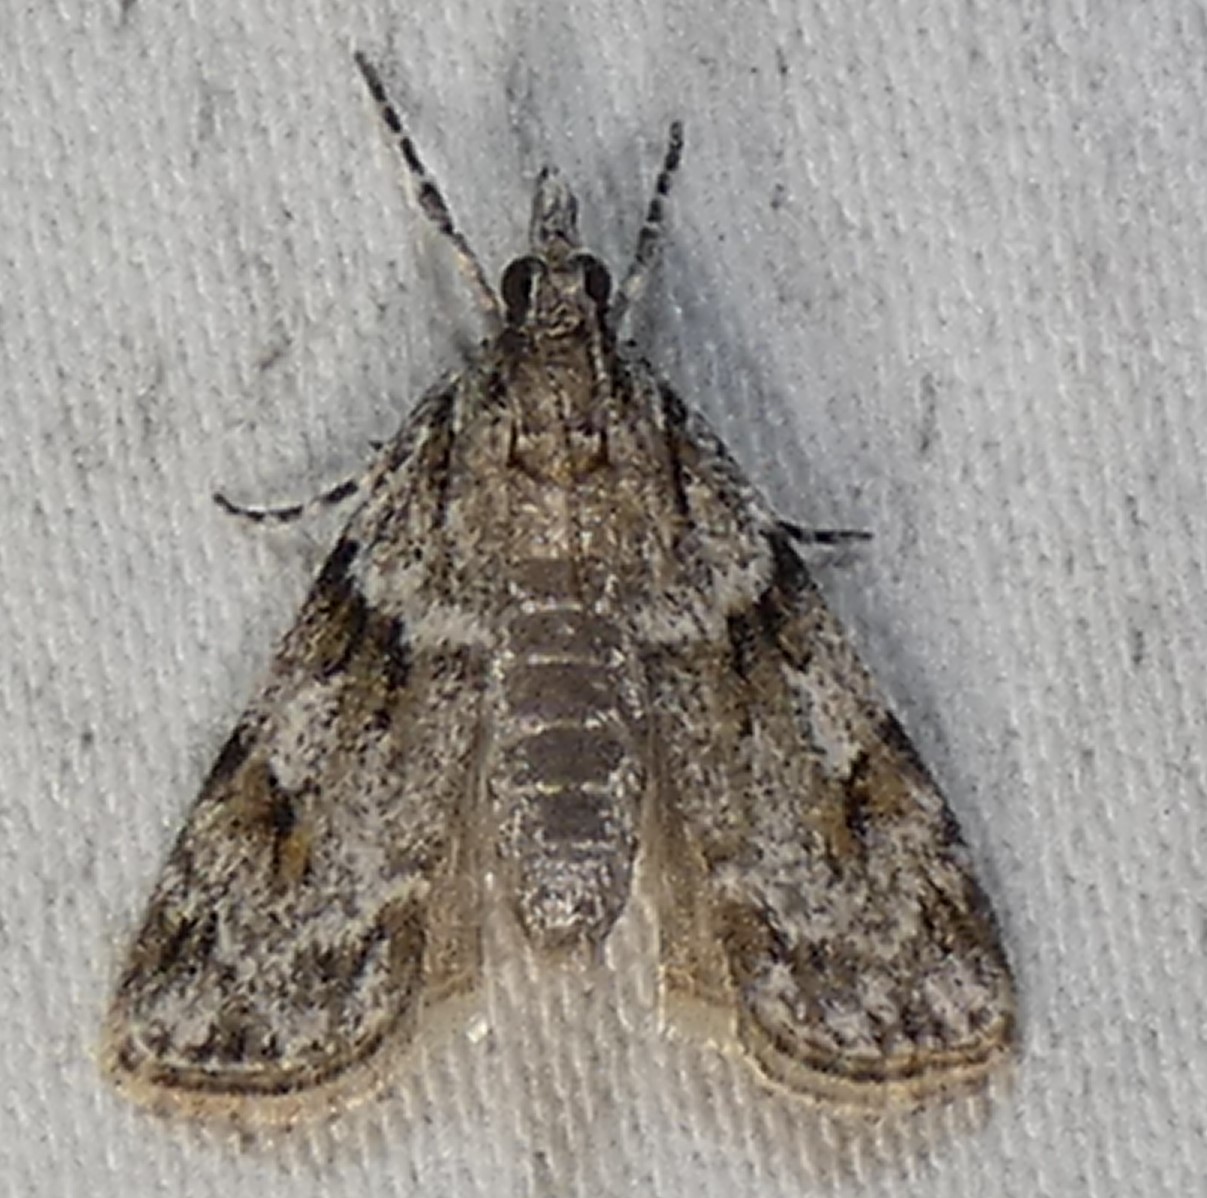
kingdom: Animalia
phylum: Arthropoda
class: Insecta
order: Lepidoptera
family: Crambidae
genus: Scoparia
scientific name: Scoparia biplagialis
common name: Double-striped scoparia moth
